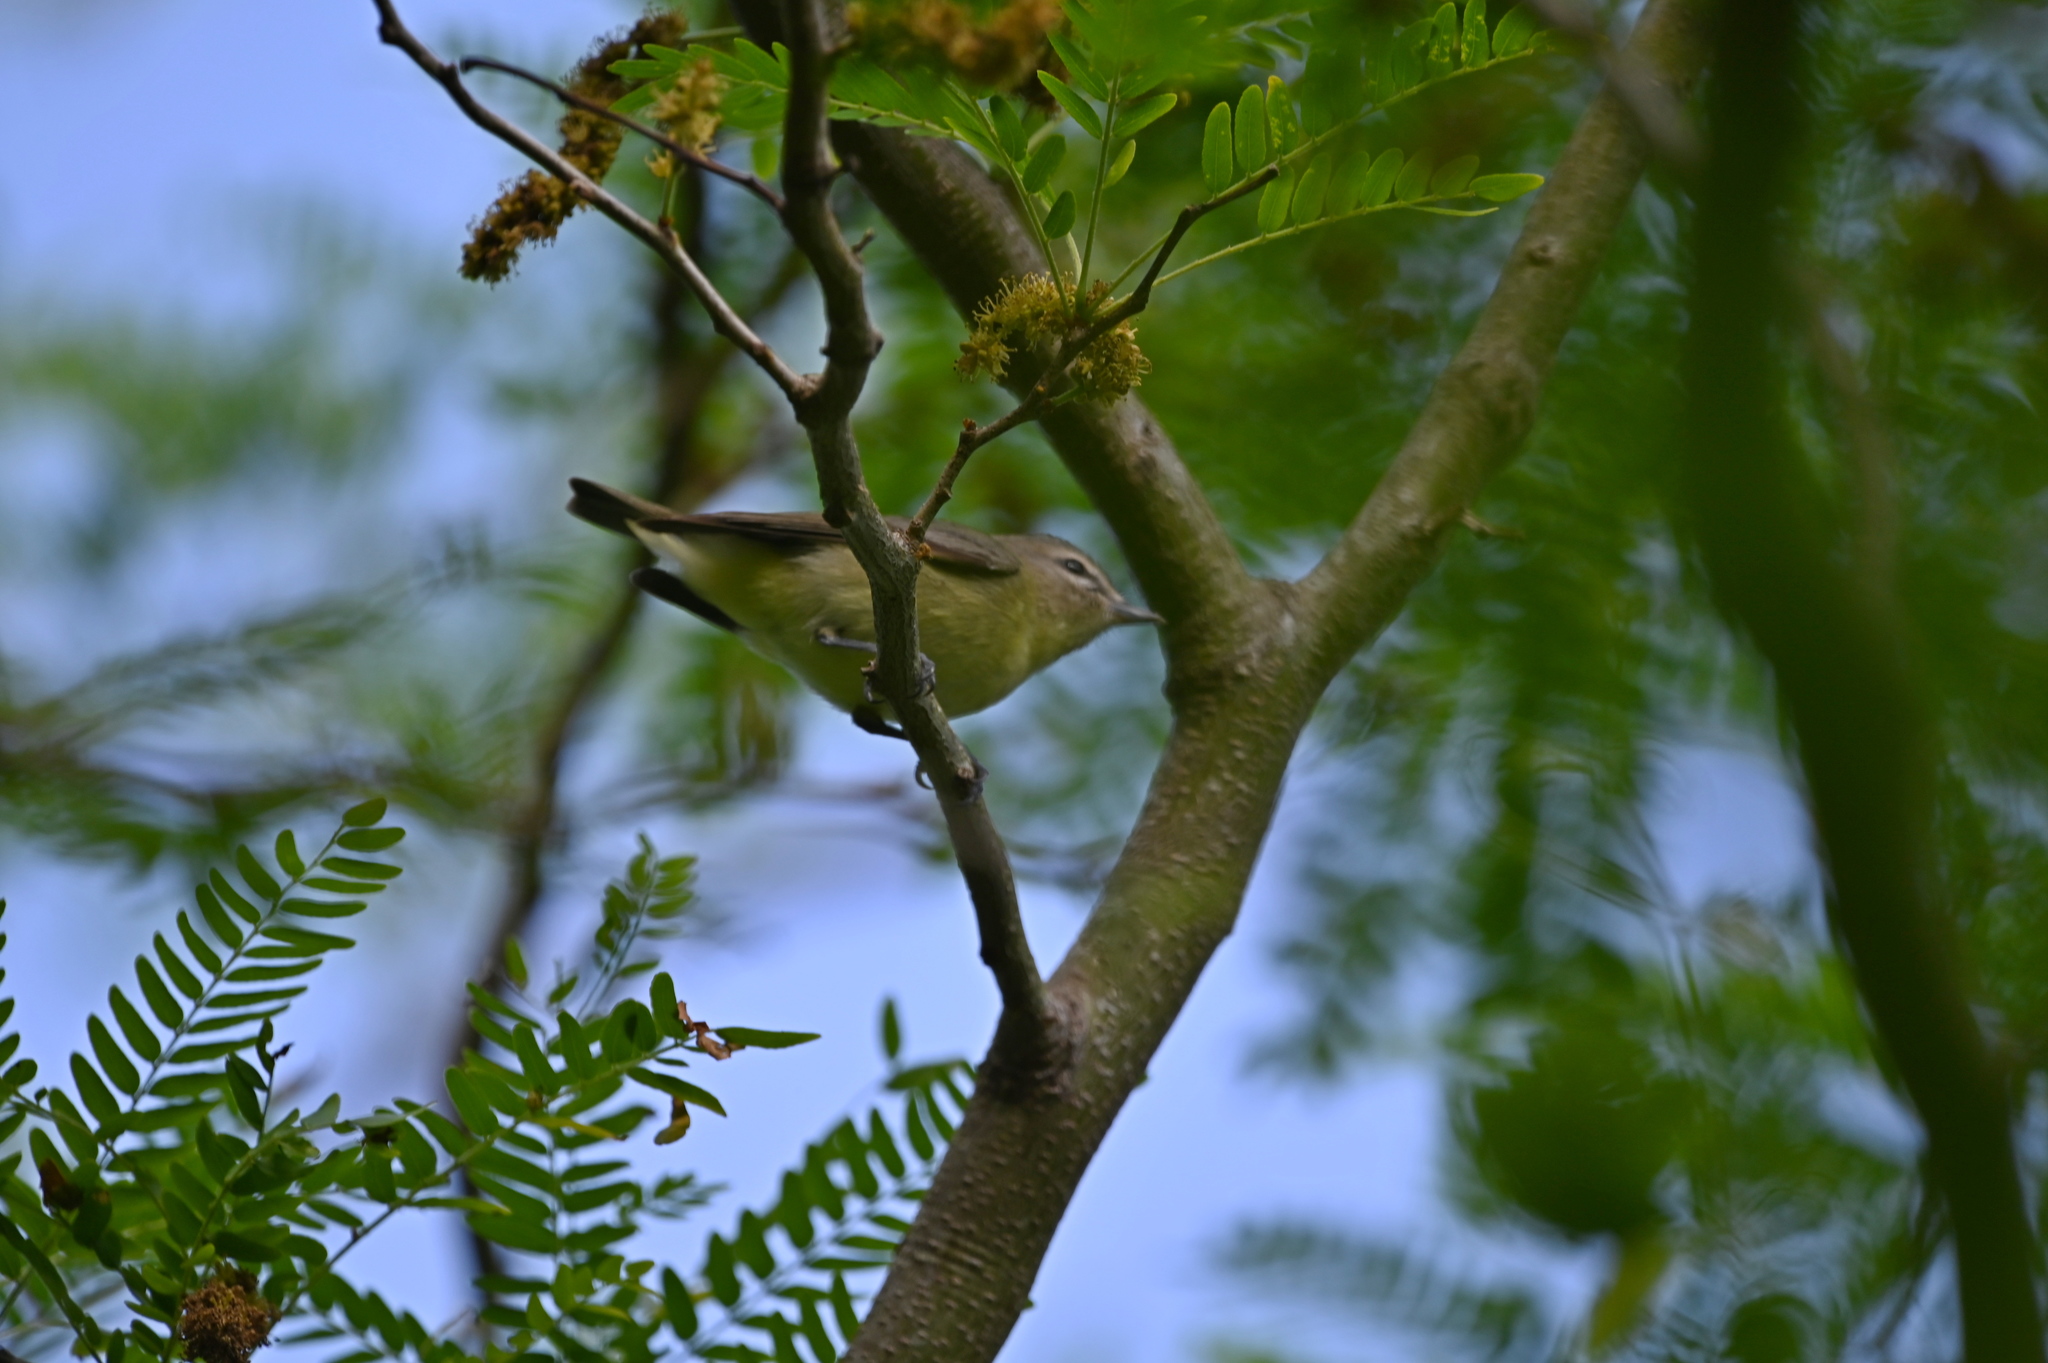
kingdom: Animalia
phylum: Chordata
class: Aves
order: Passeriformes
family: Vireonidae
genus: Vireo
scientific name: Vireo philadelphicus
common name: Philadelphia vireo
